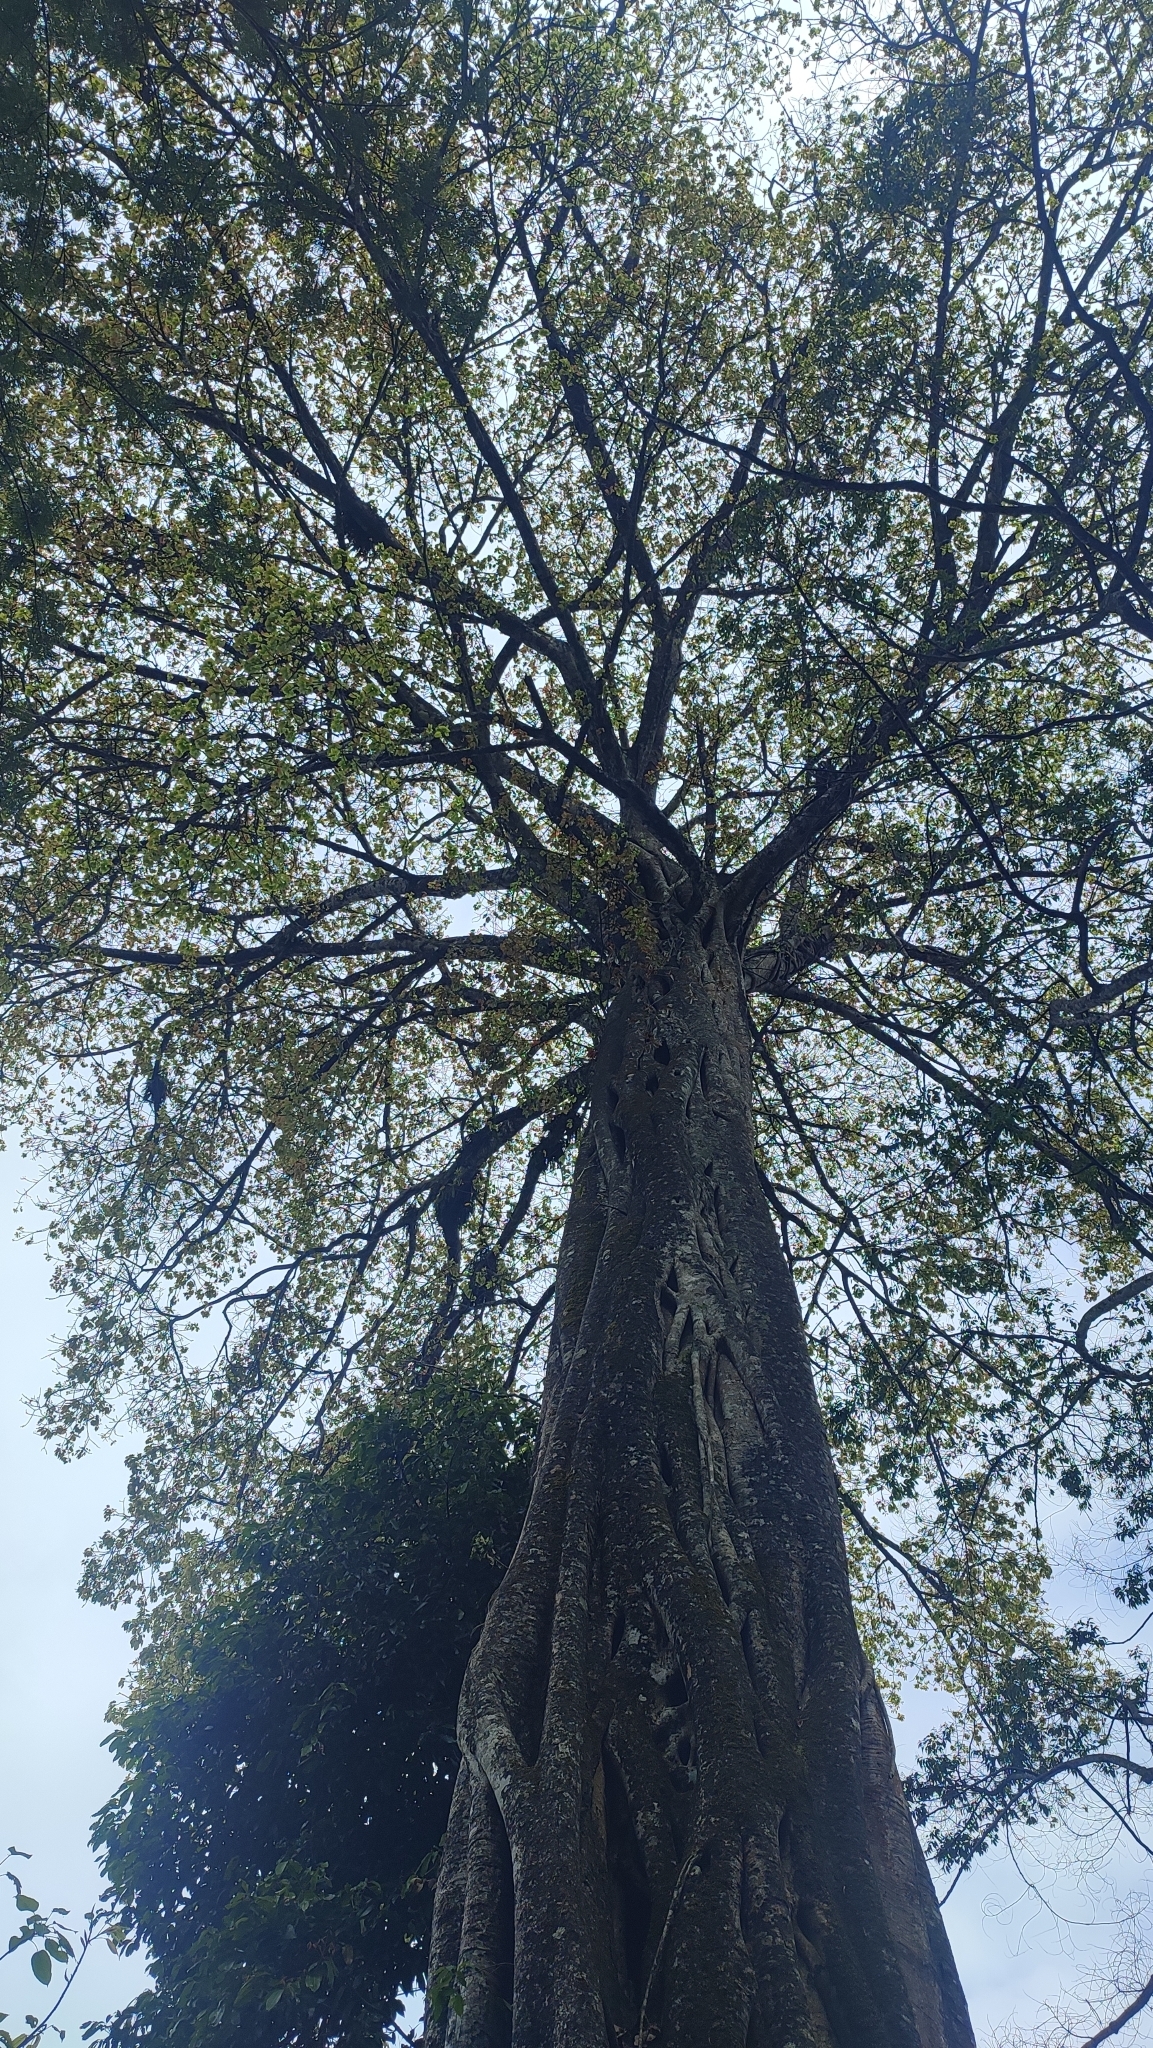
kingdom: Plantae
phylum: Tracheophyta
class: Magnoliopsida
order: Rosales
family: Moraceae
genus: Ficus
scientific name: Ficus tsjakela
